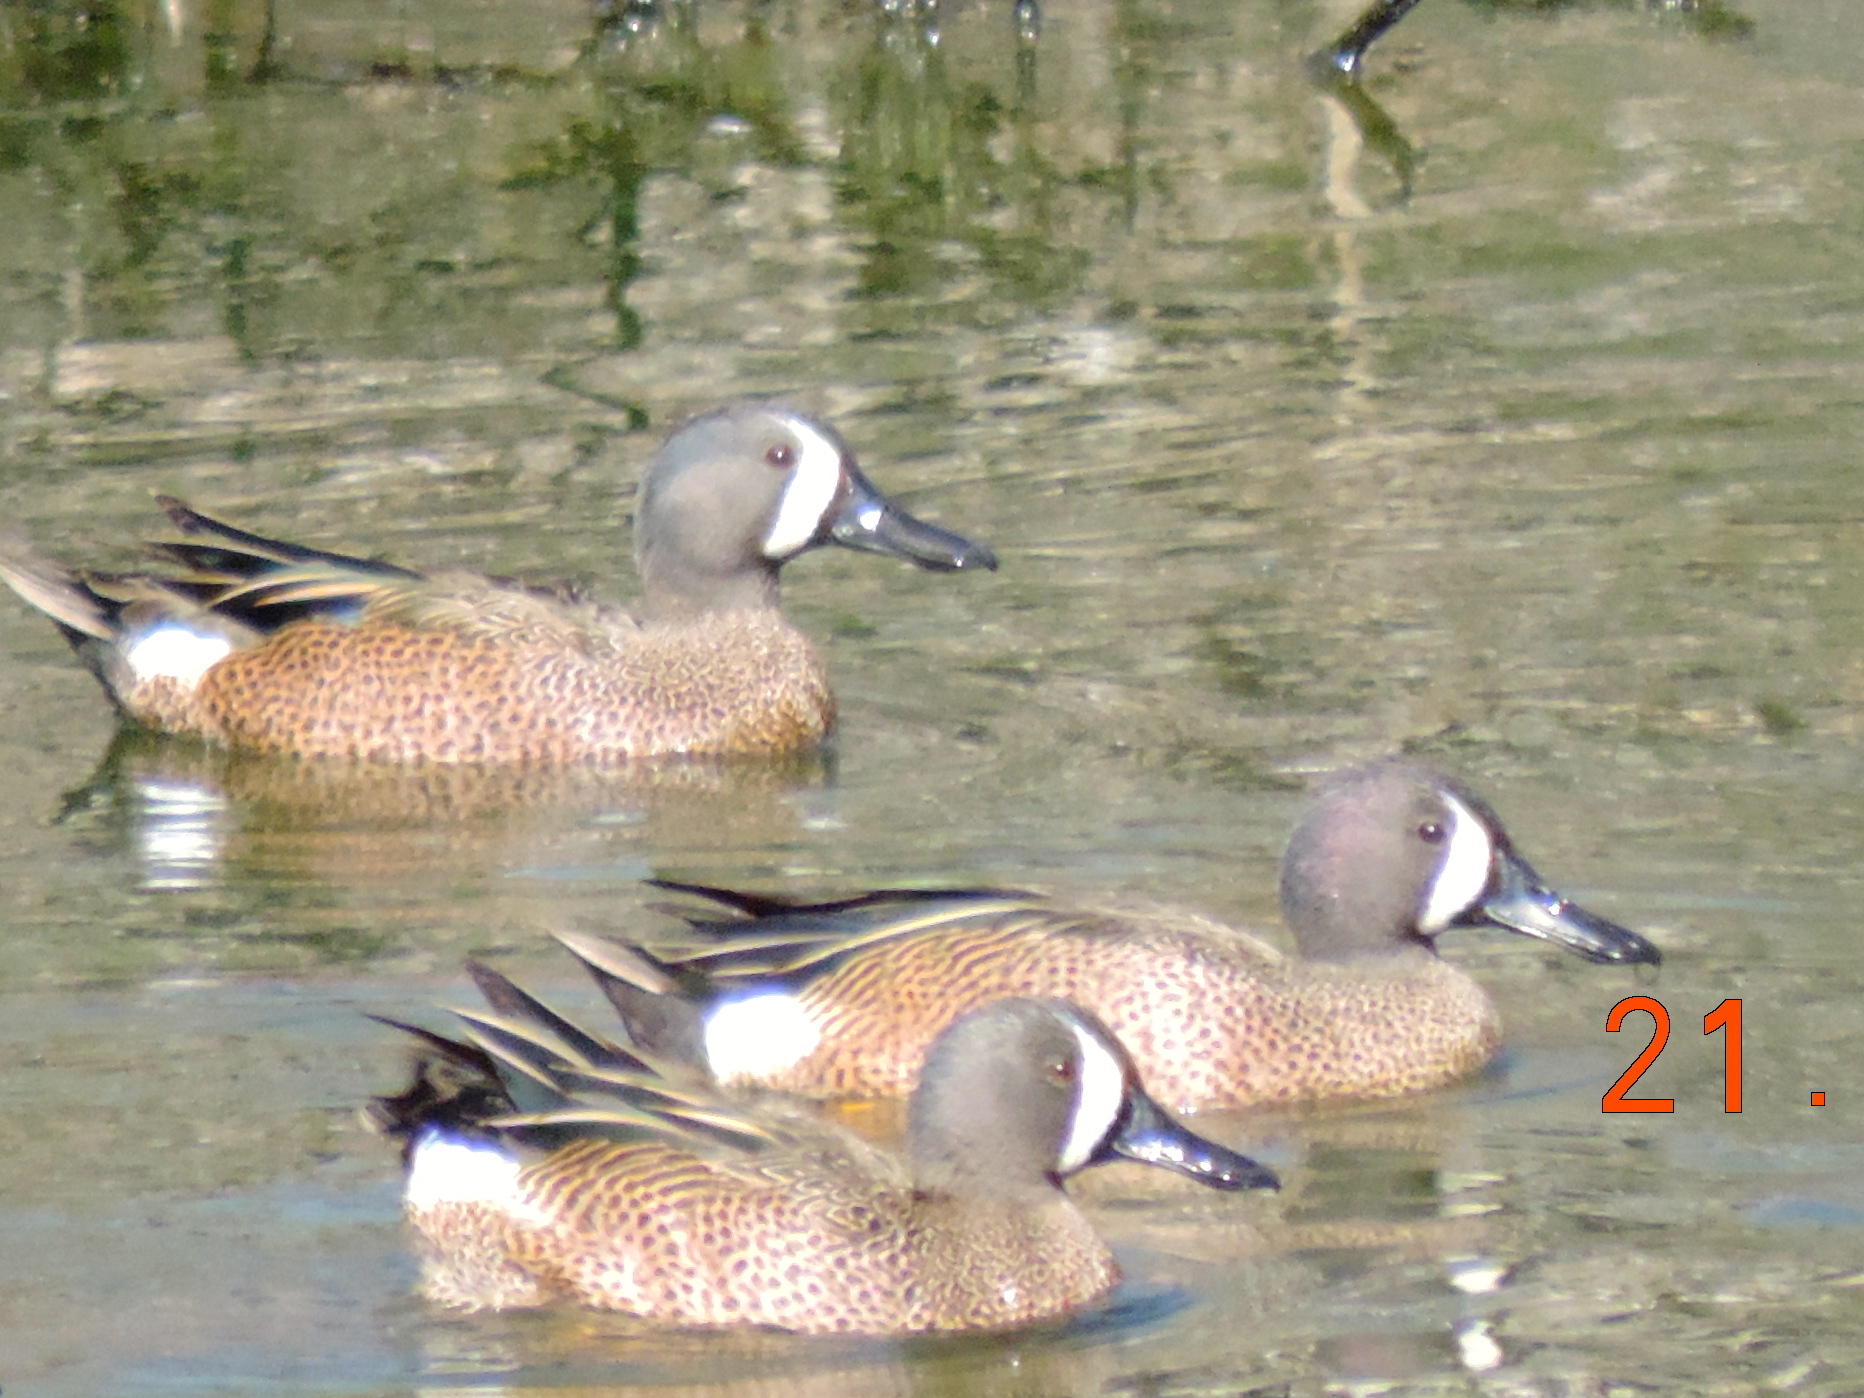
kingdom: Animalia
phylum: Chordata
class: Aves
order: Anseriformes
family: Anatidae
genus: Spatula
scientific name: Spatula discors
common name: Blue-winged teal
